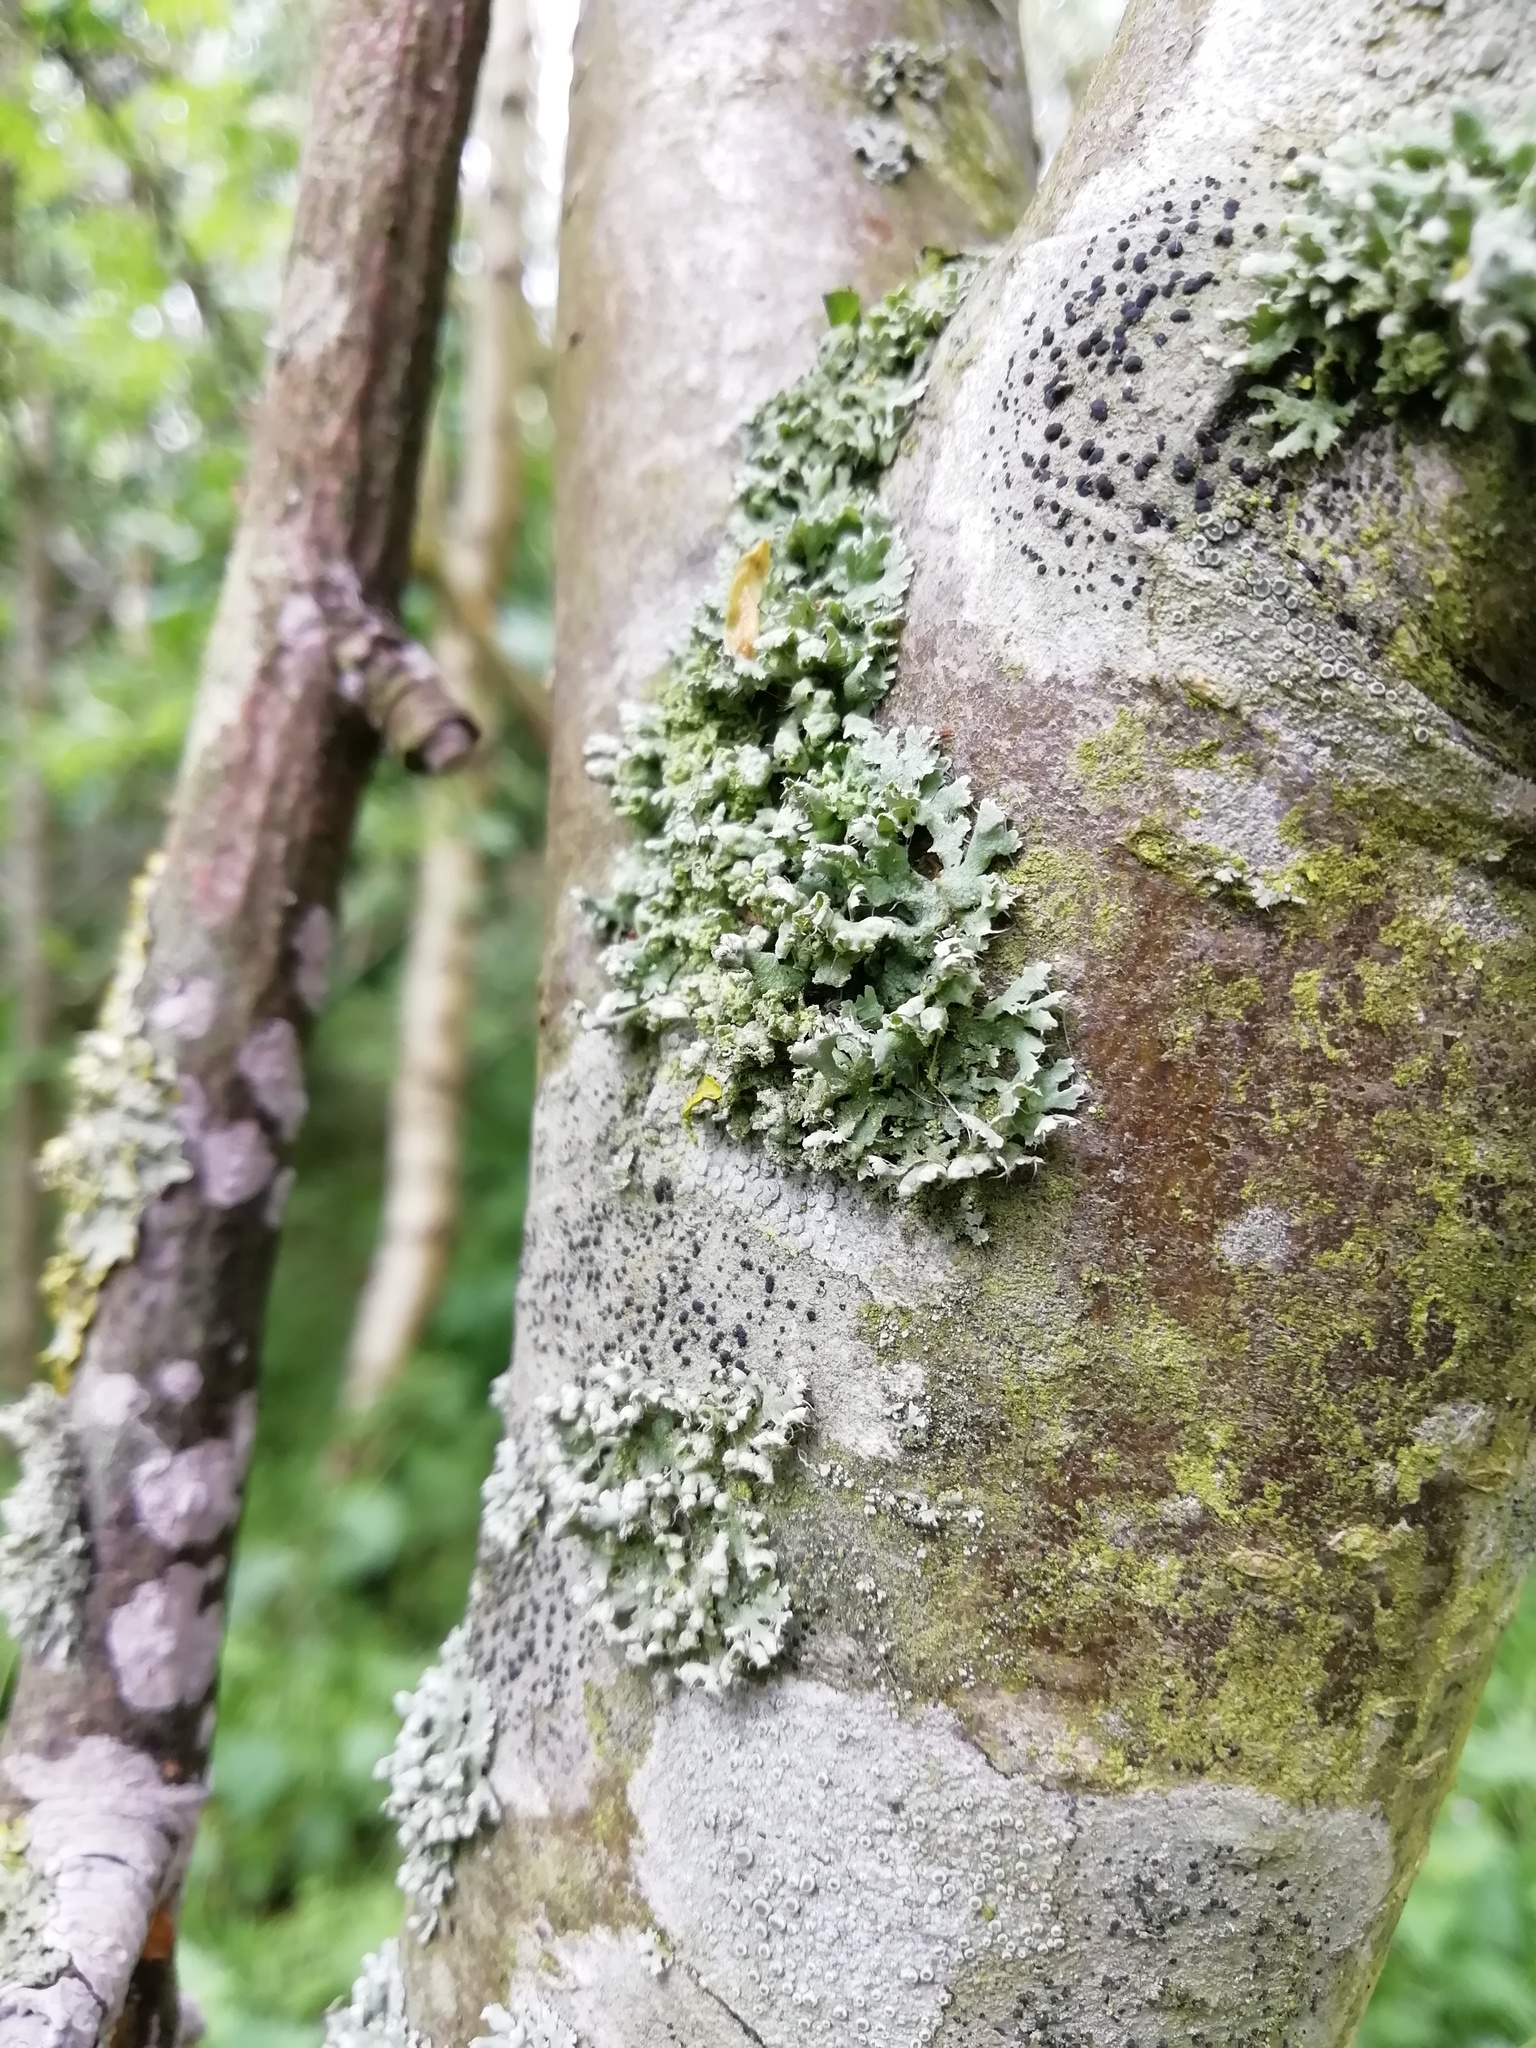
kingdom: Fungi
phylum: Ascomycota
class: Lecanoromycetes
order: Caliciales
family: Physciaceae
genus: Physcia
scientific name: Physcia adscendens
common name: Hooded rosette lichen
